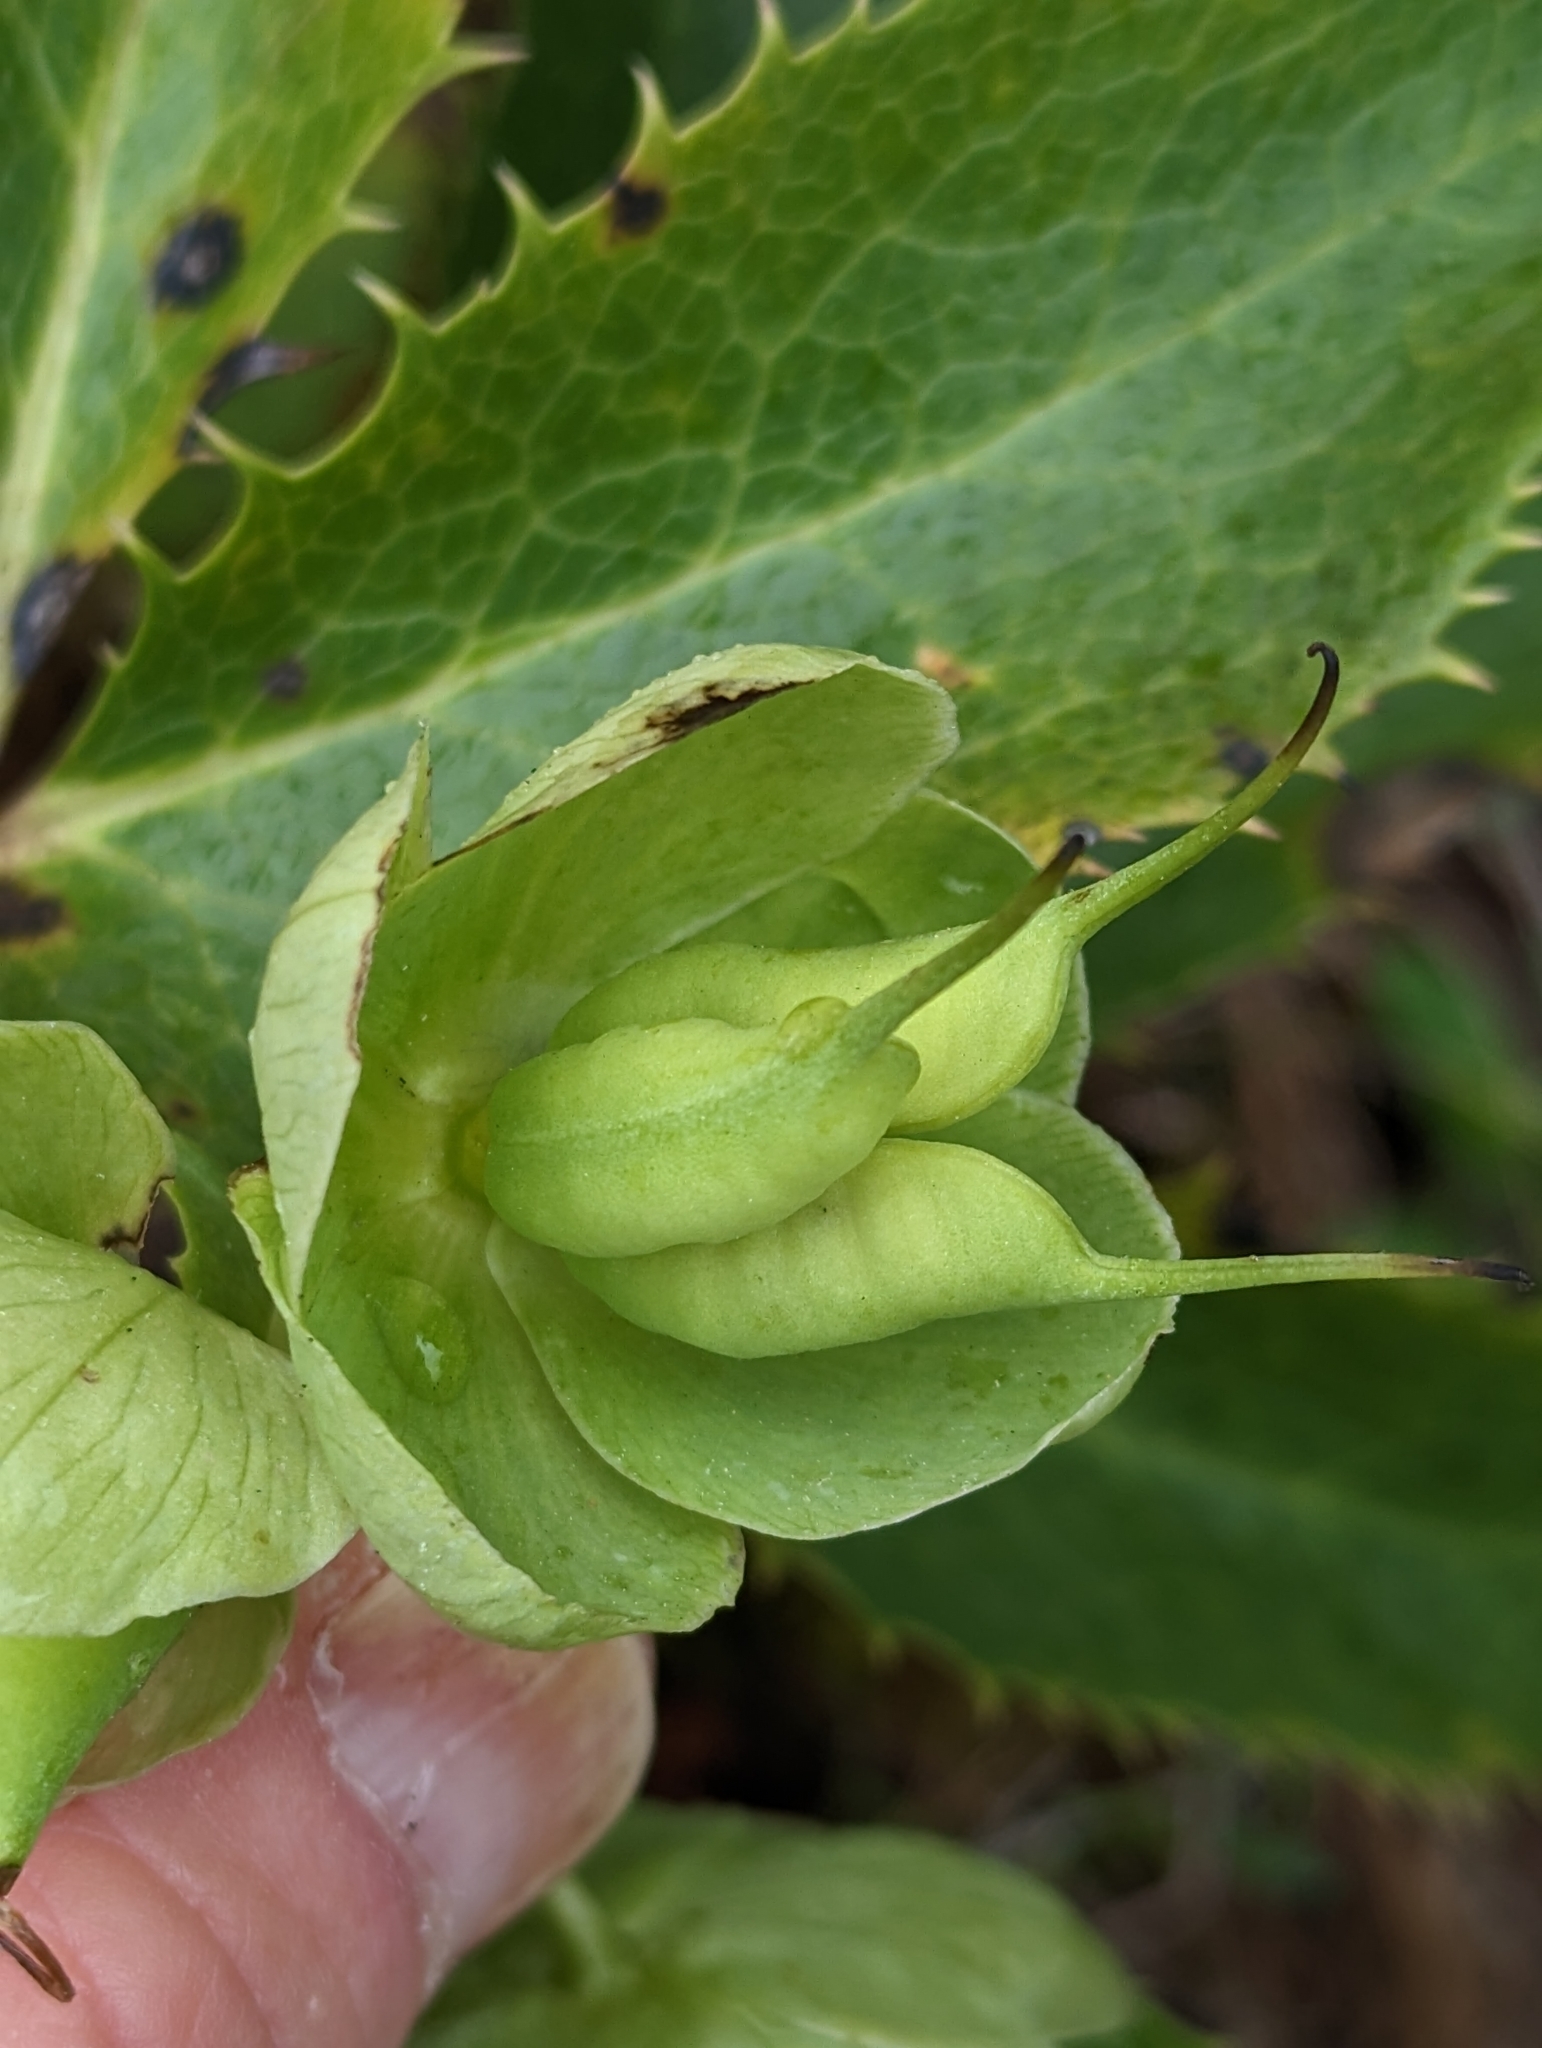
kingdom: Plantae
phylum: Tracheophyta
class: Magnoliopsida
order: Ranunculales
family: Ranunculaceae
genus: Helleborus
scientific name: Helleborus argutifolius
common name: Corsican hellebore
